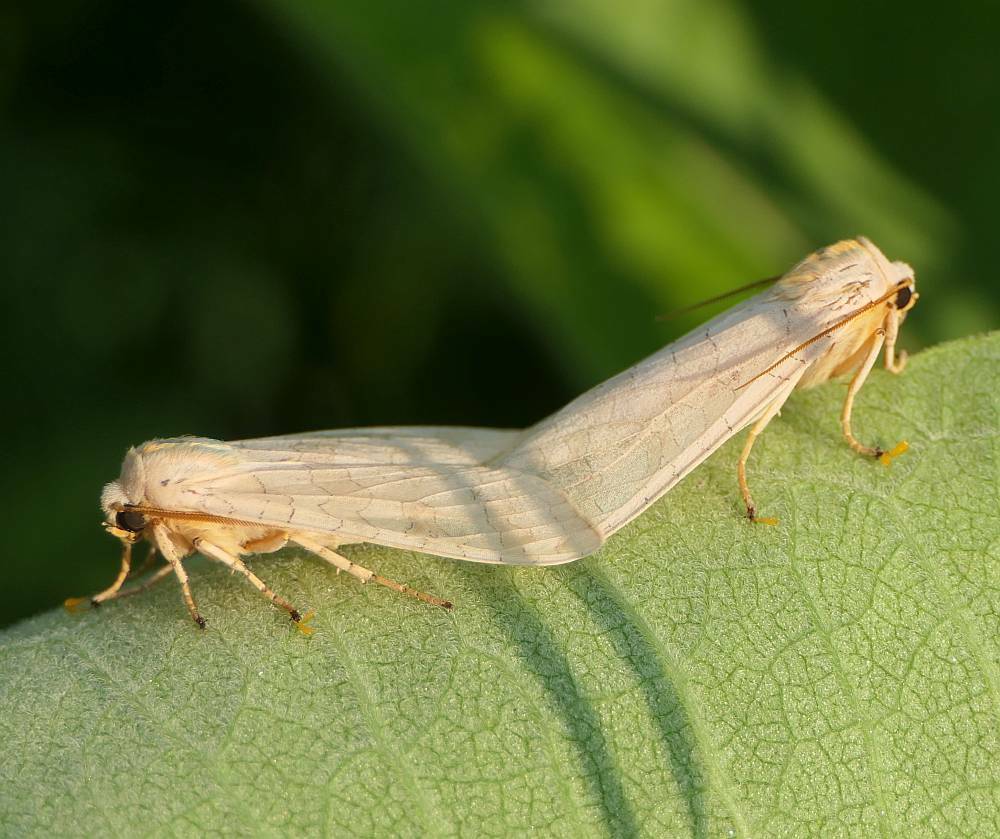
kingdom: Animalia
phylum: Arthropoda
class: Insecta
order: Lepidoptera
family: Erebidae
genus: Halysidota
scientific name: Halysidota tessellaris
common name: Banded tussock moth
